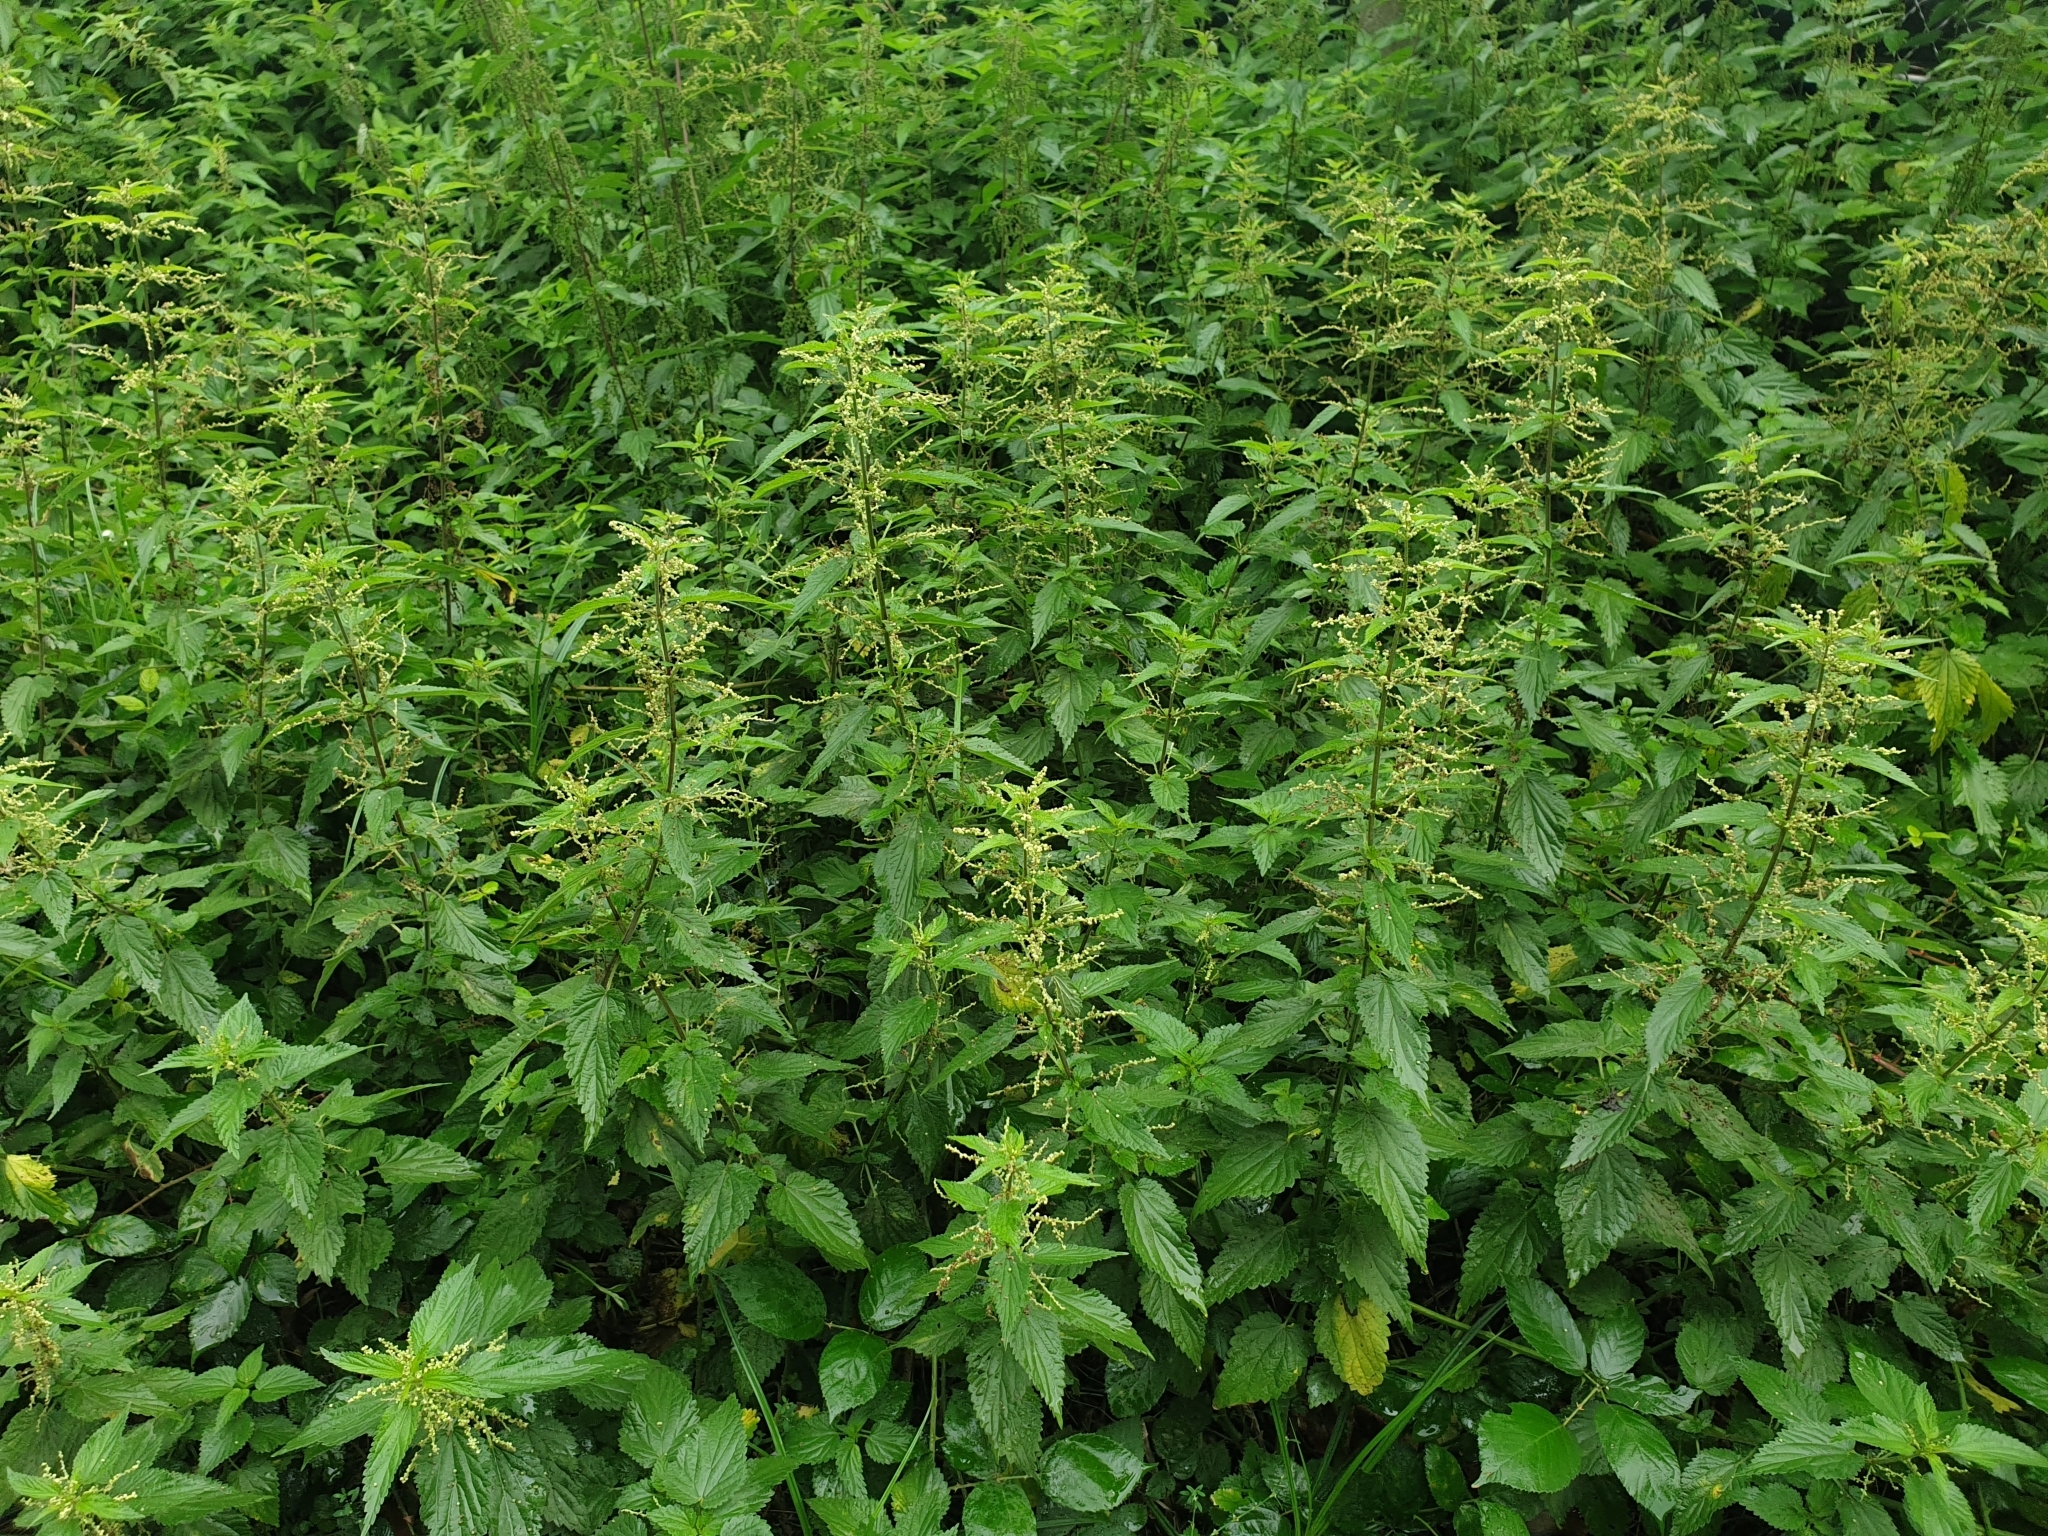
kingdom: Plantae
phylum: Tracheophyta
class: Magnoliopsida
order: Rosales
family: Urticaceae
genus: Urtica
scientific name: Urtica dioica
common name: Common nettle
